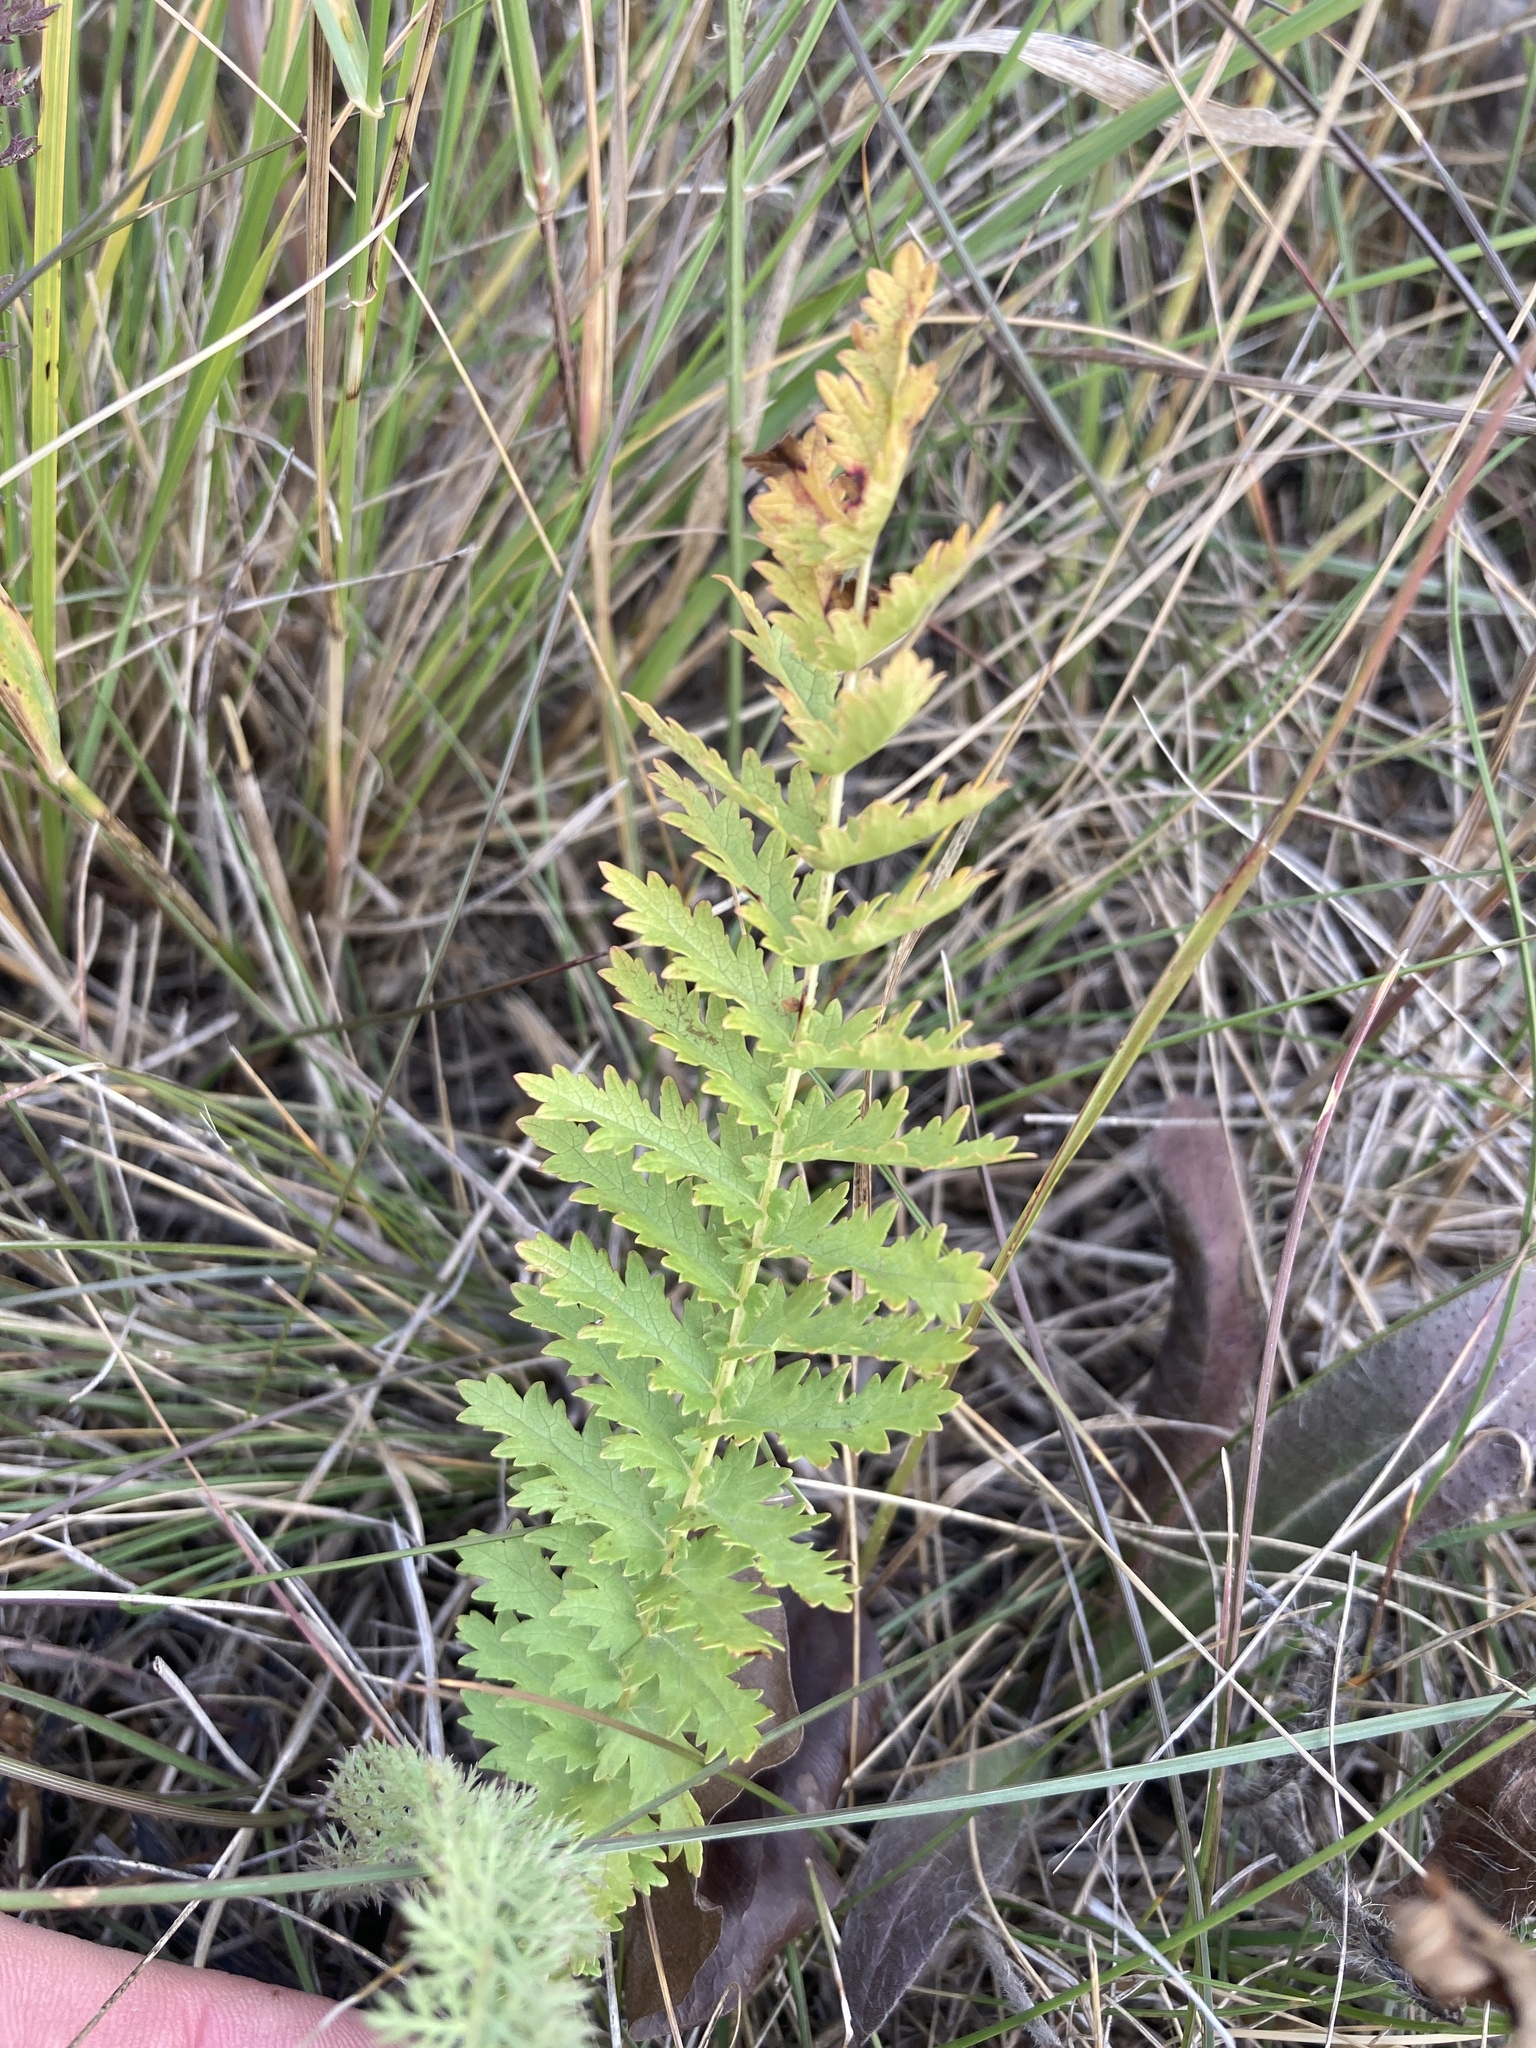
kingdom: Plantae
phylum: Tracheophyta
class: Magnoliopsida
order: Rosales
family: Rosaceae
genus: Filipendula
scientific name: Filipendula vulgaris
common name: Dropwort
